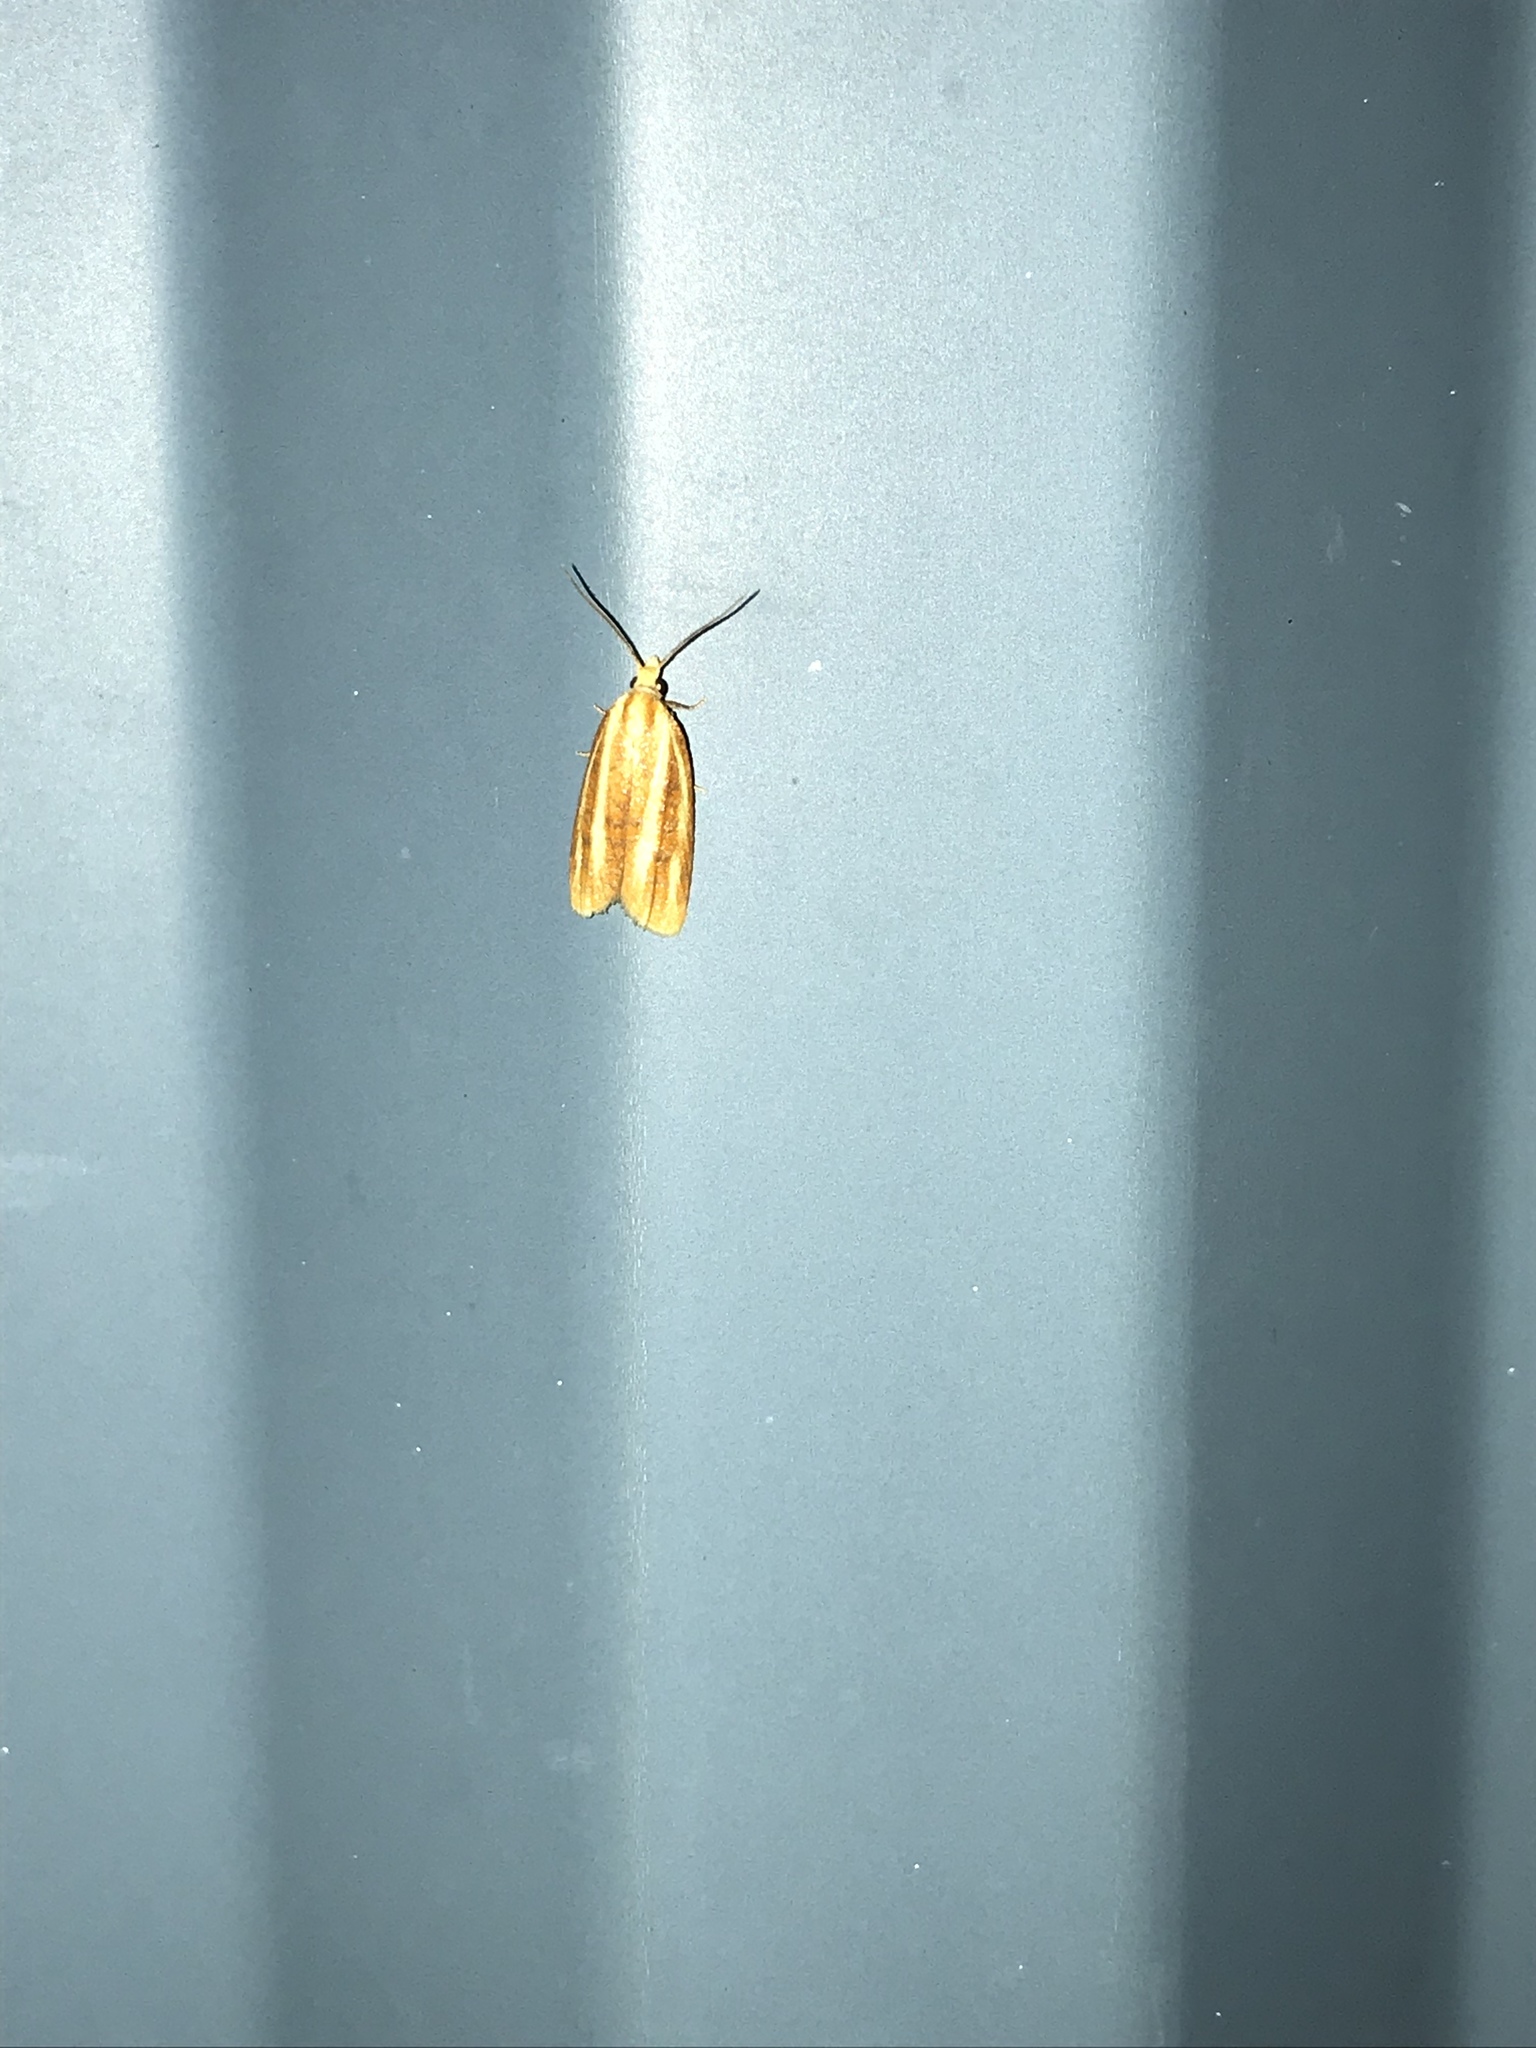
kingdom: Animalia
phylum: Arthropoda
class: Insecta
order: Lepidoptera
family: Tortricidae
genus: Sparganothis
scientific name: Sparganothis tristriata
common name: Three-streaked sparganothis moth
